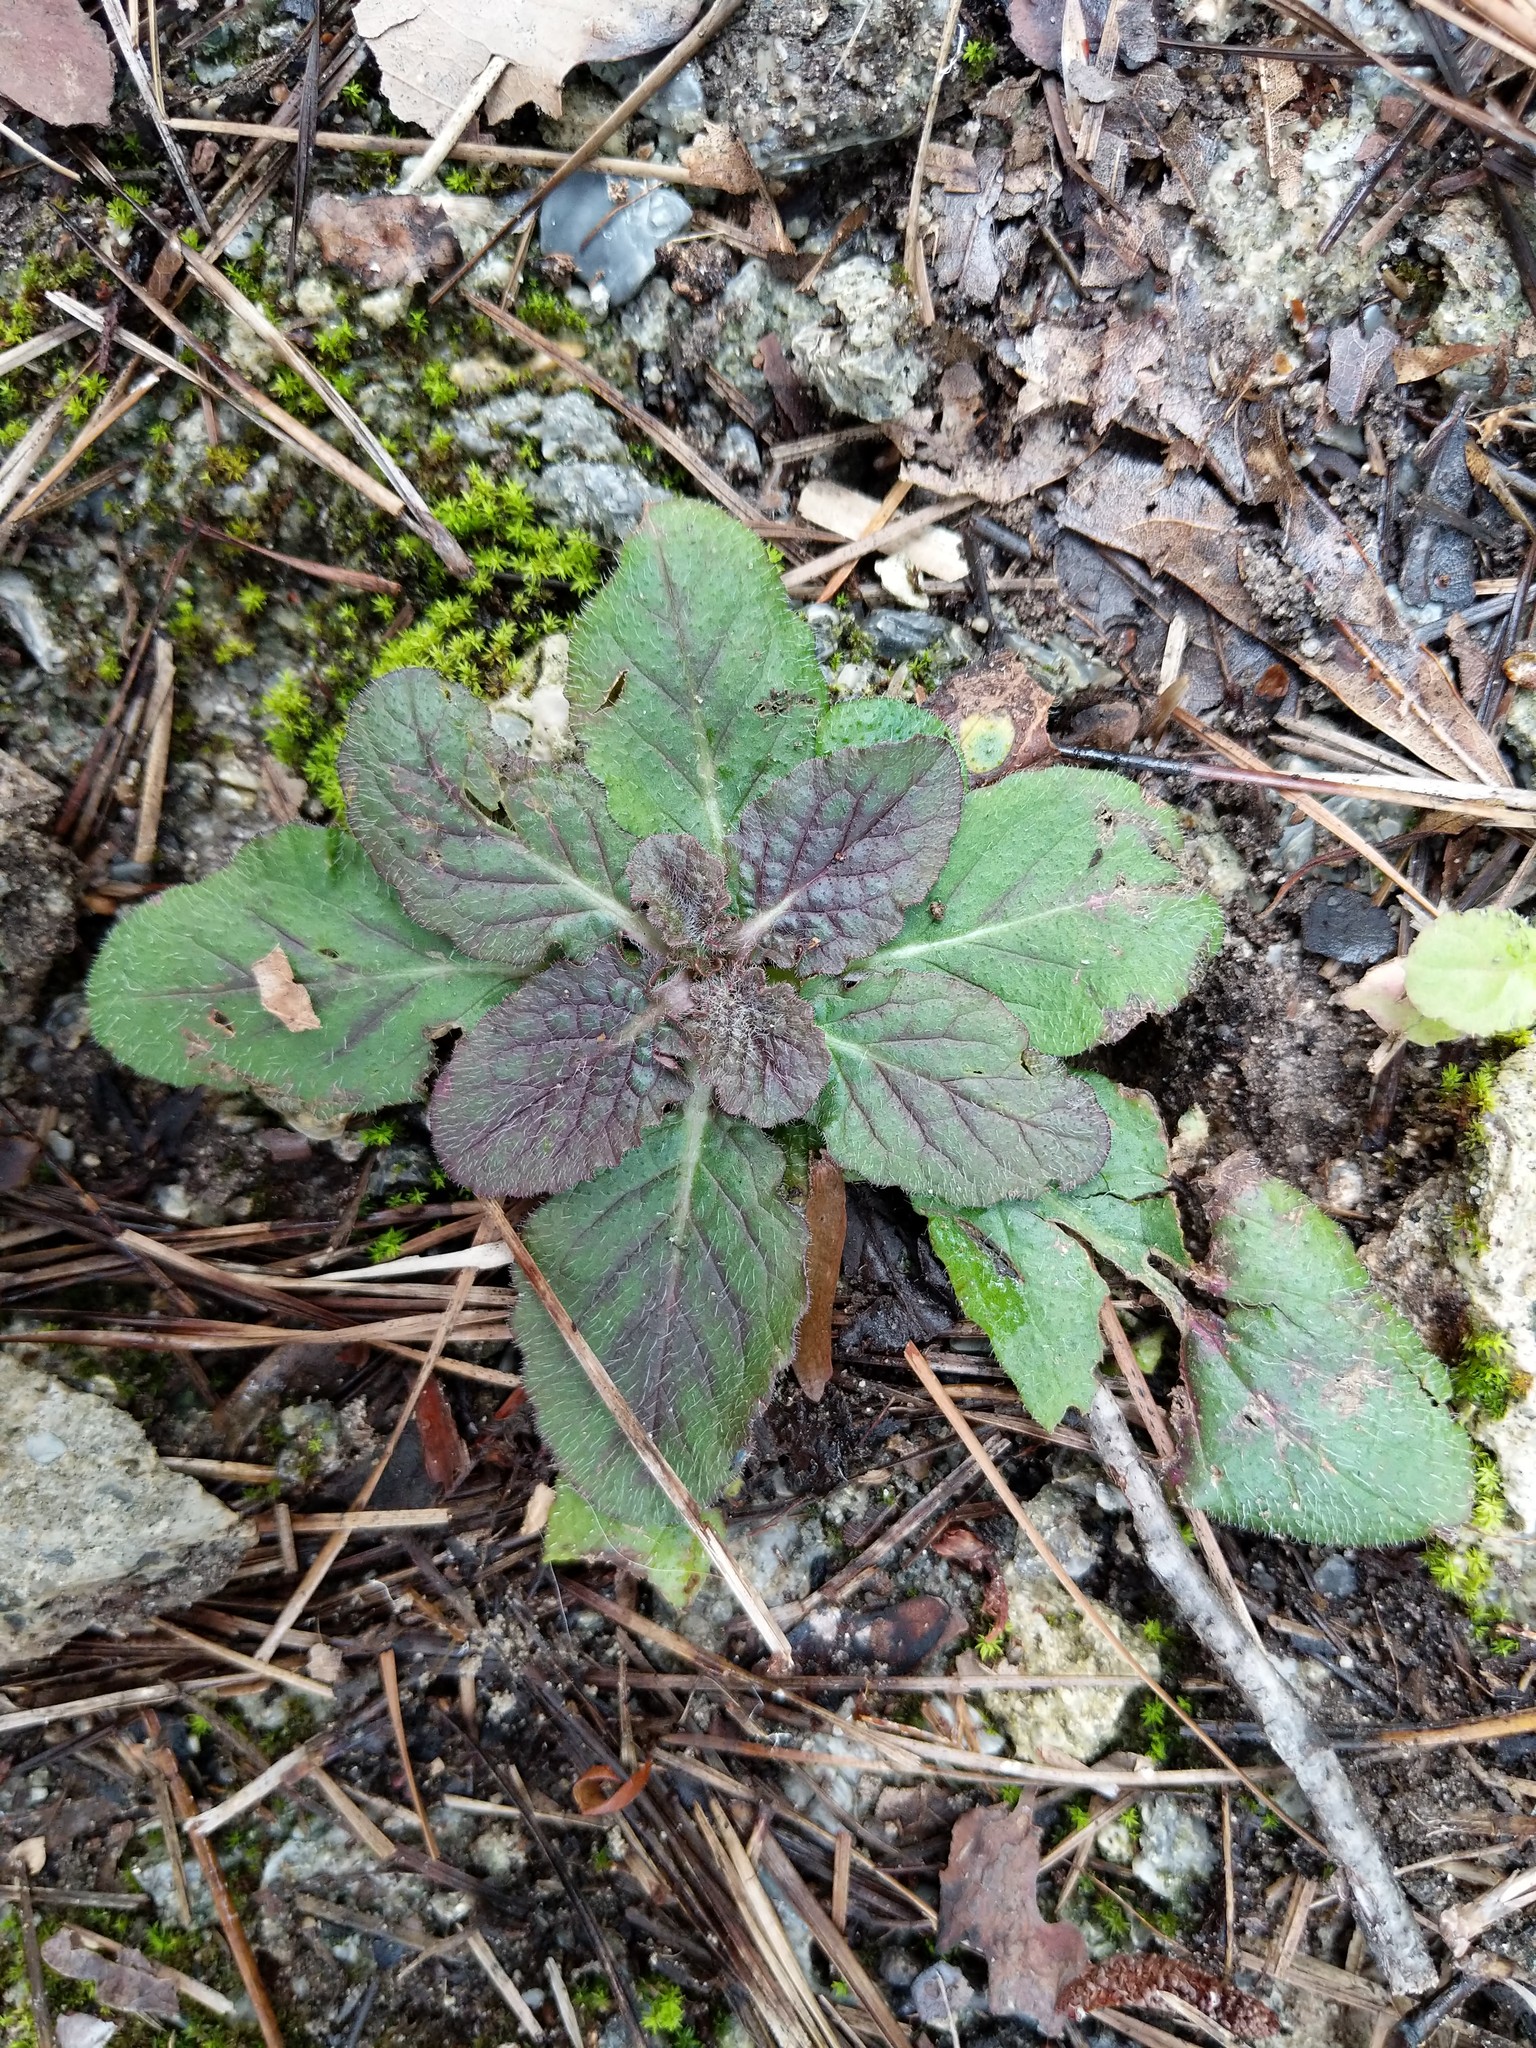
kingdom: Plantae
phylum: Tracheophyta
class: Magnoliopsida
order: Lamiales
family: Lamiaceae
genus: Salvia
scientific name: Salvia lyrata
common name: Cancerweed
